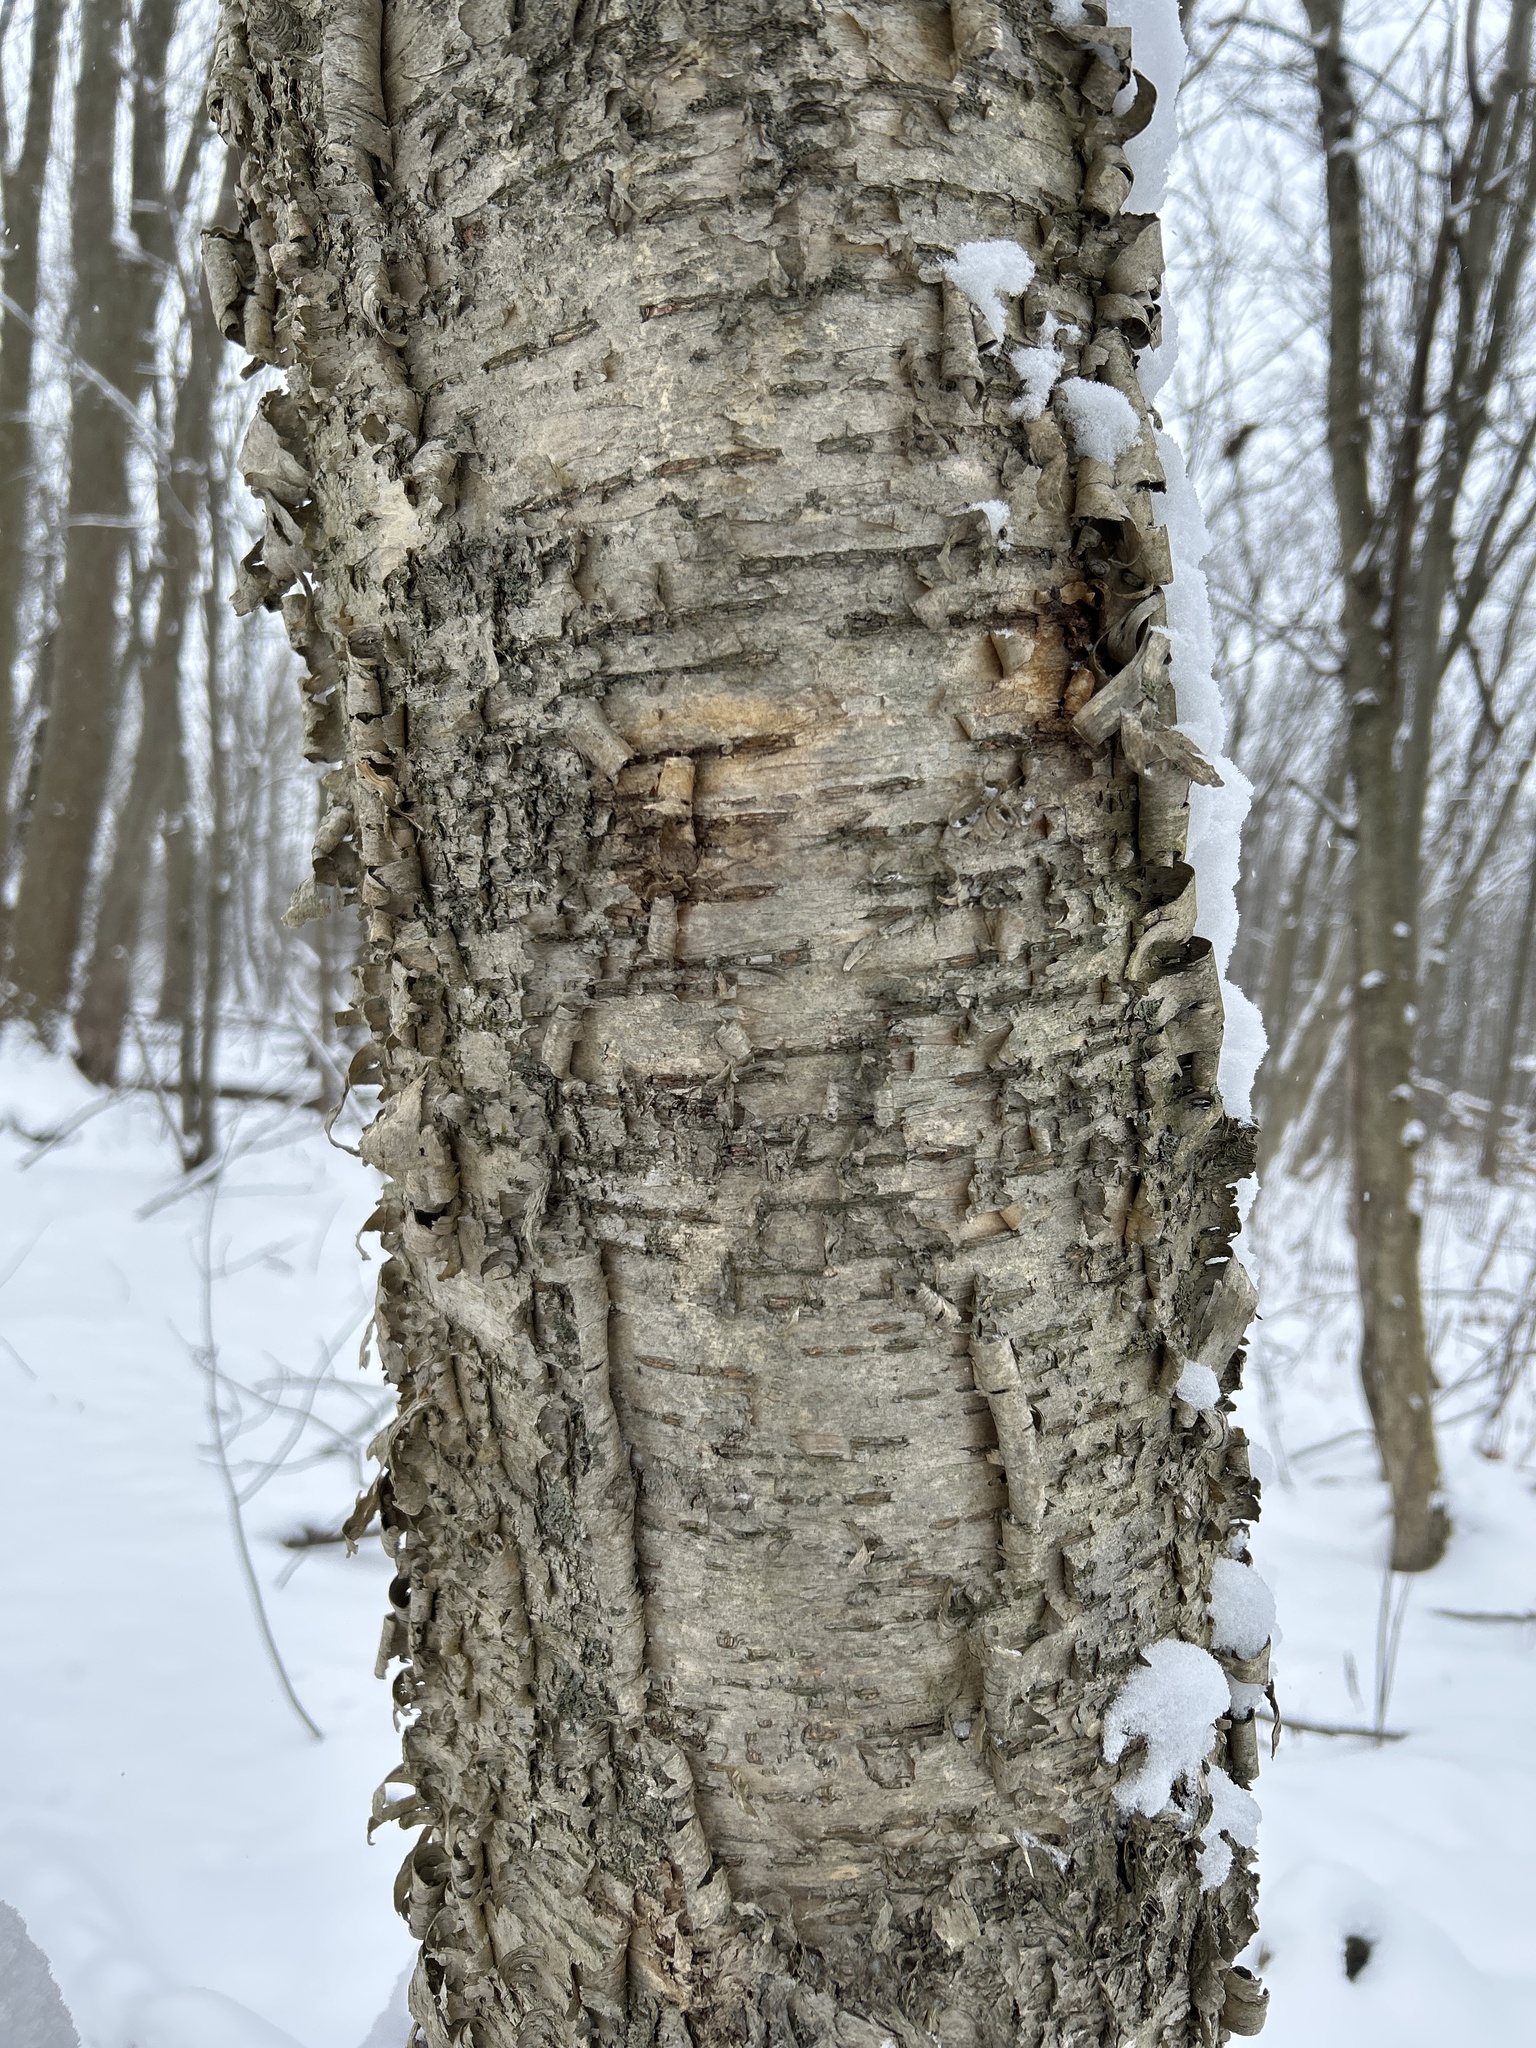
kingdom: Plantae
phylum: Tracheophyta
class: Magnoliopsida
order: Fagales
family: Betulaceae
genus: Betula
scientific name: Betula alleghaniensis
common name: Yellow birch
